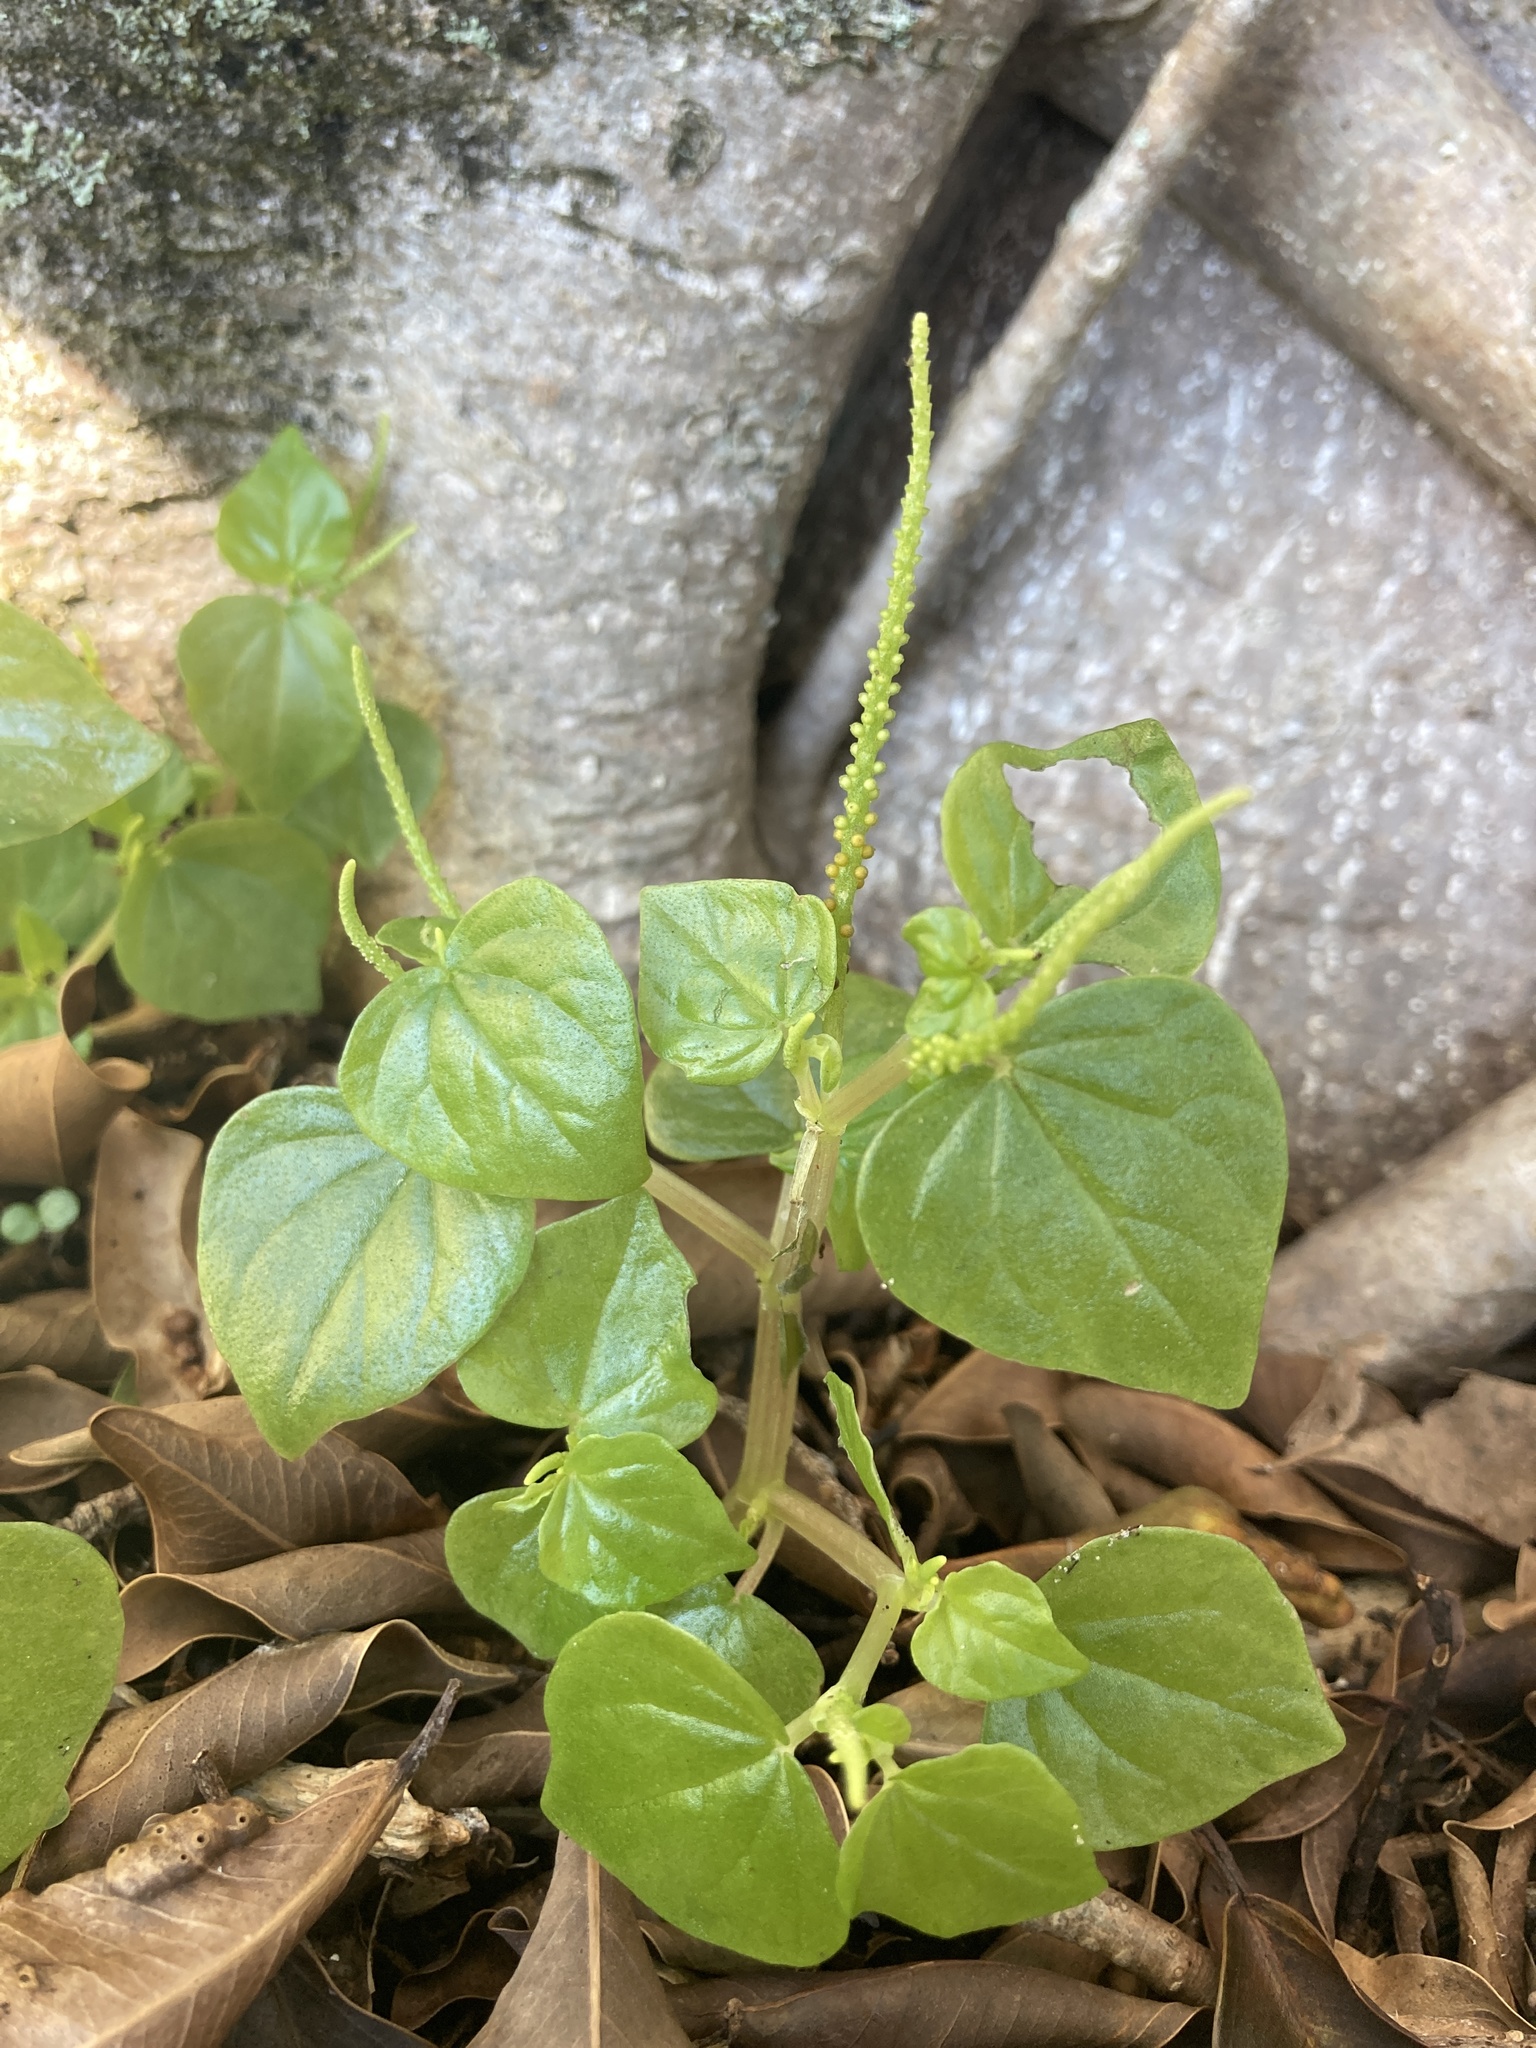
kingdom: Plantae
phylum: Tracheophyta
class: Magnoliopsida
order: Piperales
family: Piperaceae
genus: Peperomia
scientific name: Peperomia pellucida
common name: Man to man
